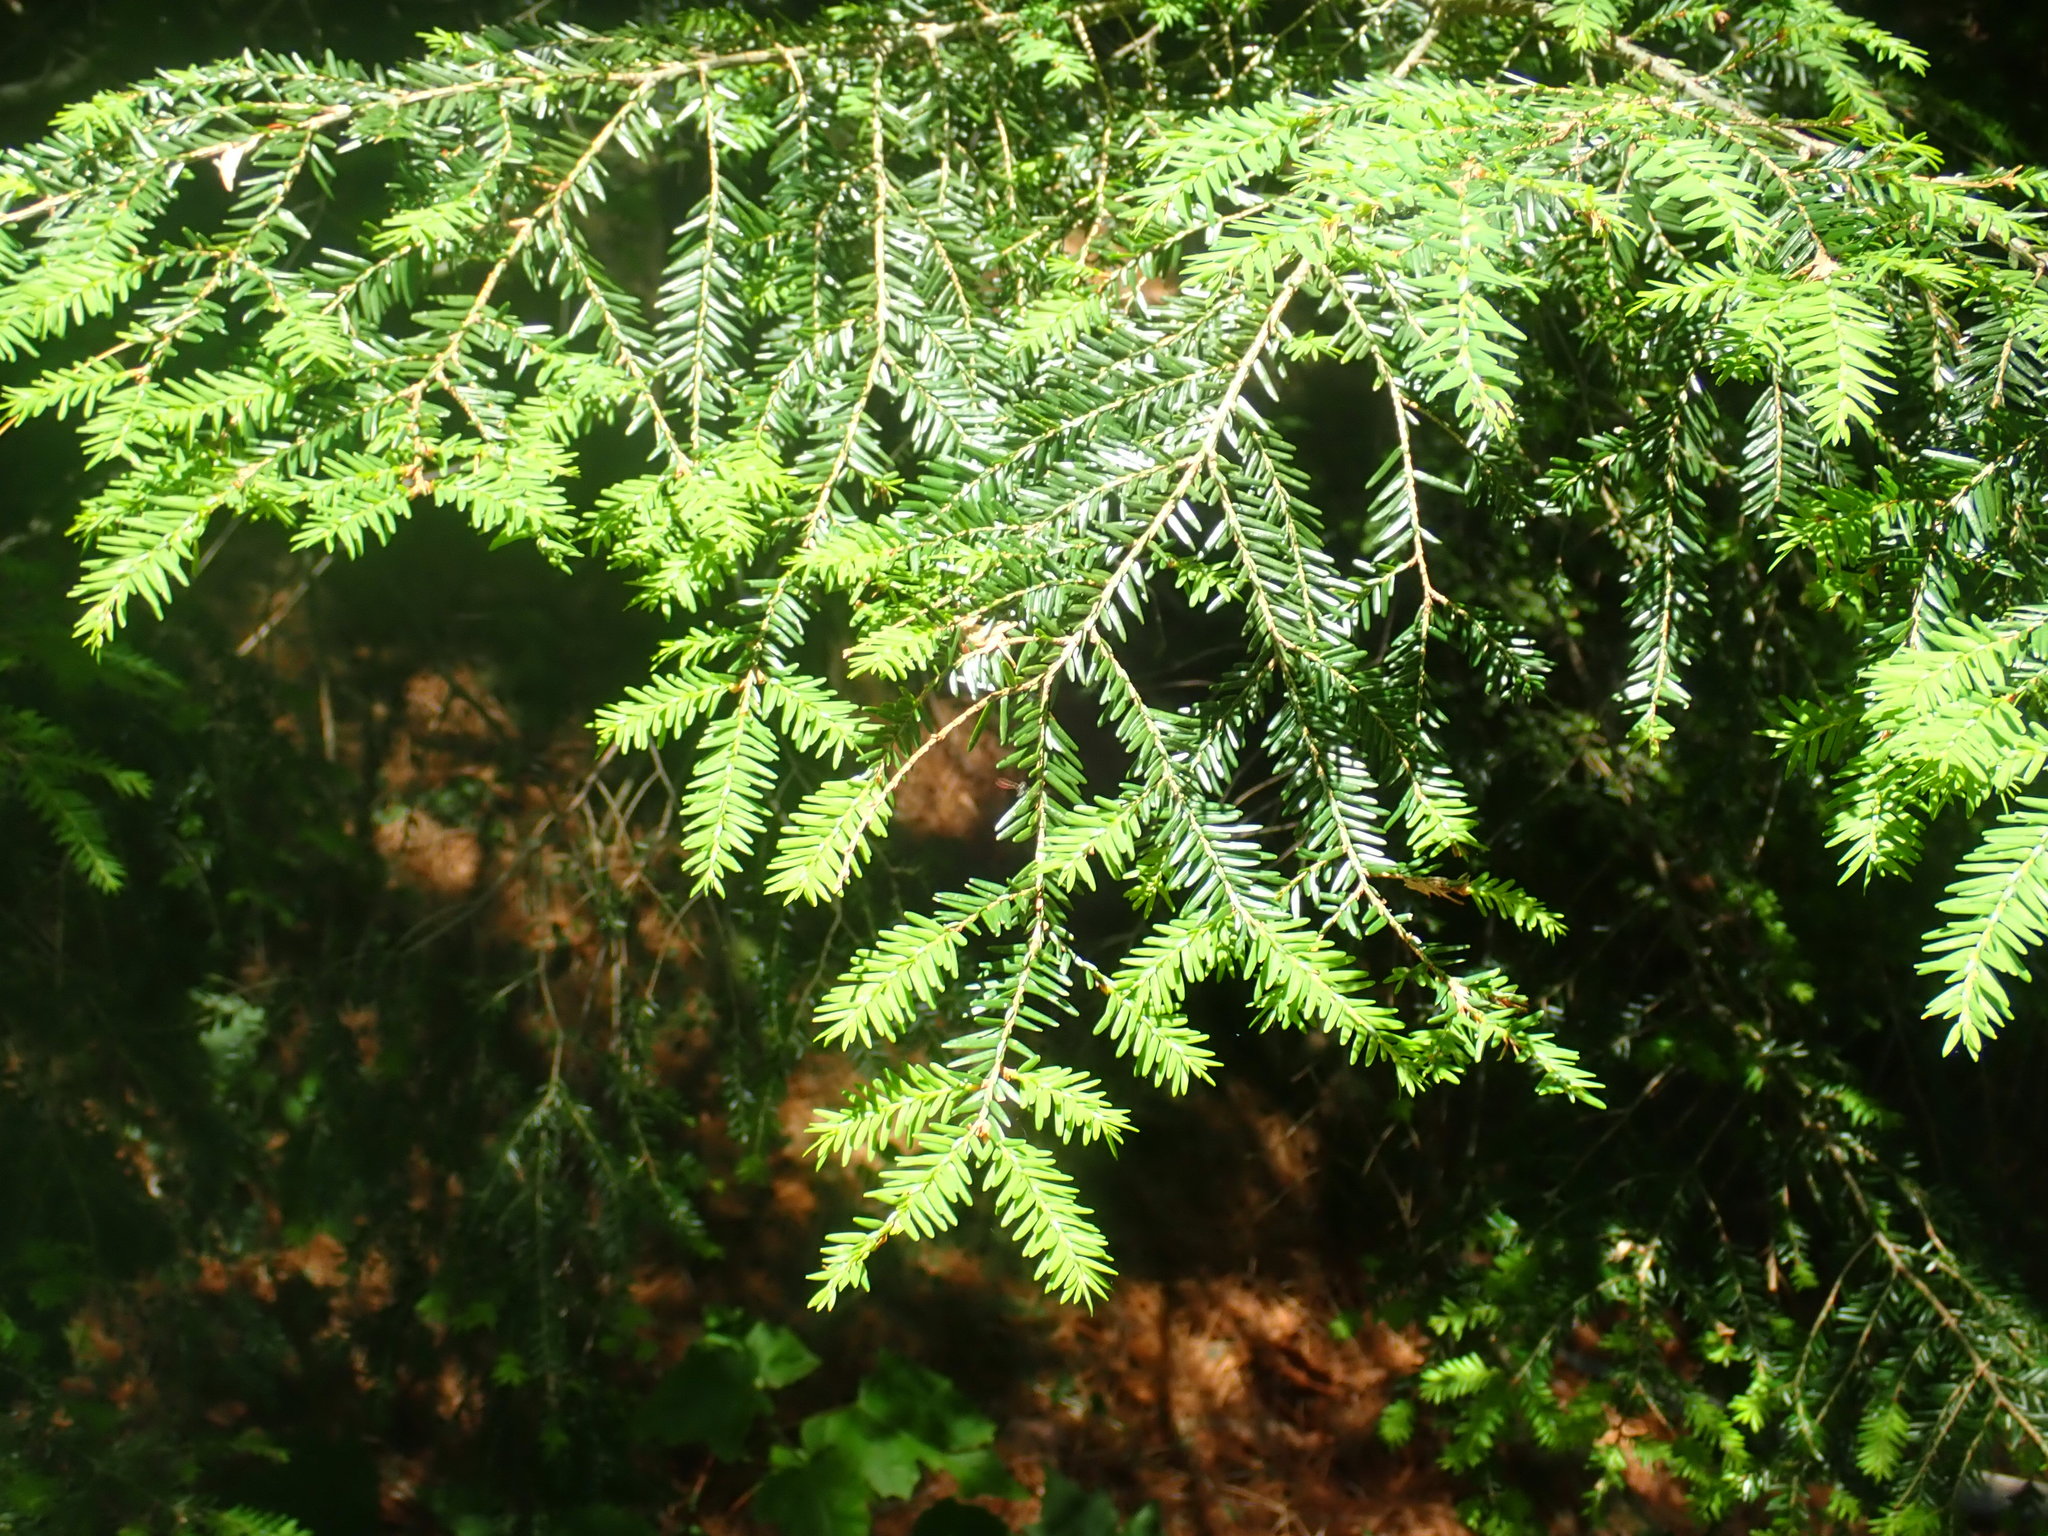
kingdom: Plantae
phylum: Tracheophyta
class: Pinopsida
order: Pinales
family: Pinaceae
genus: Tsuga
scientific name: Tsuga canadensis
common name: Eastern hemlock
